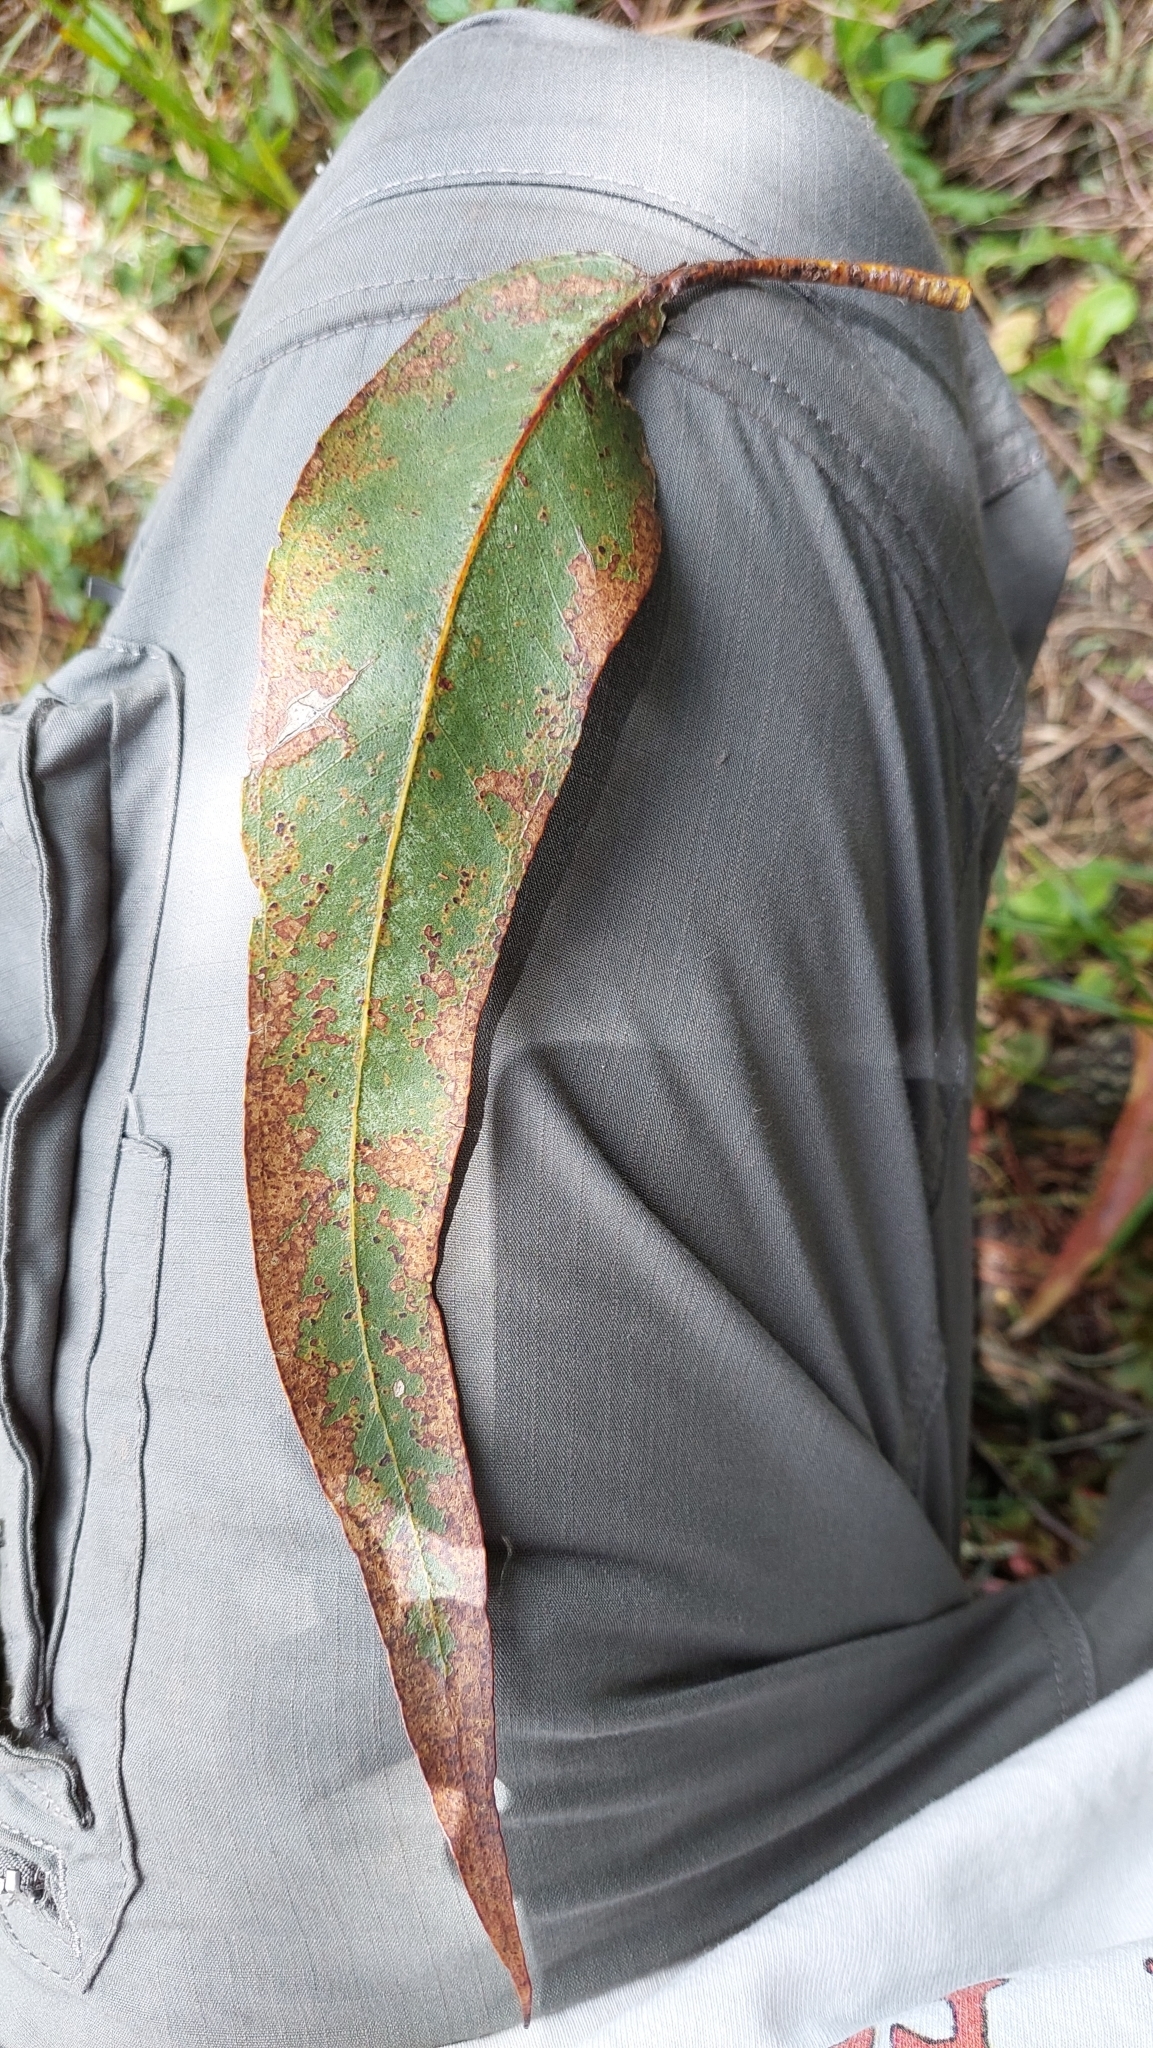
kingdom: Plantae
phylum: Tracheophyta
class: Magnoliopsida
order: Myrtales
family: Myrtaceae
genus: Eucalyptus
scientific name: Eucalyptus globulus
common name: Southern blue-gum
